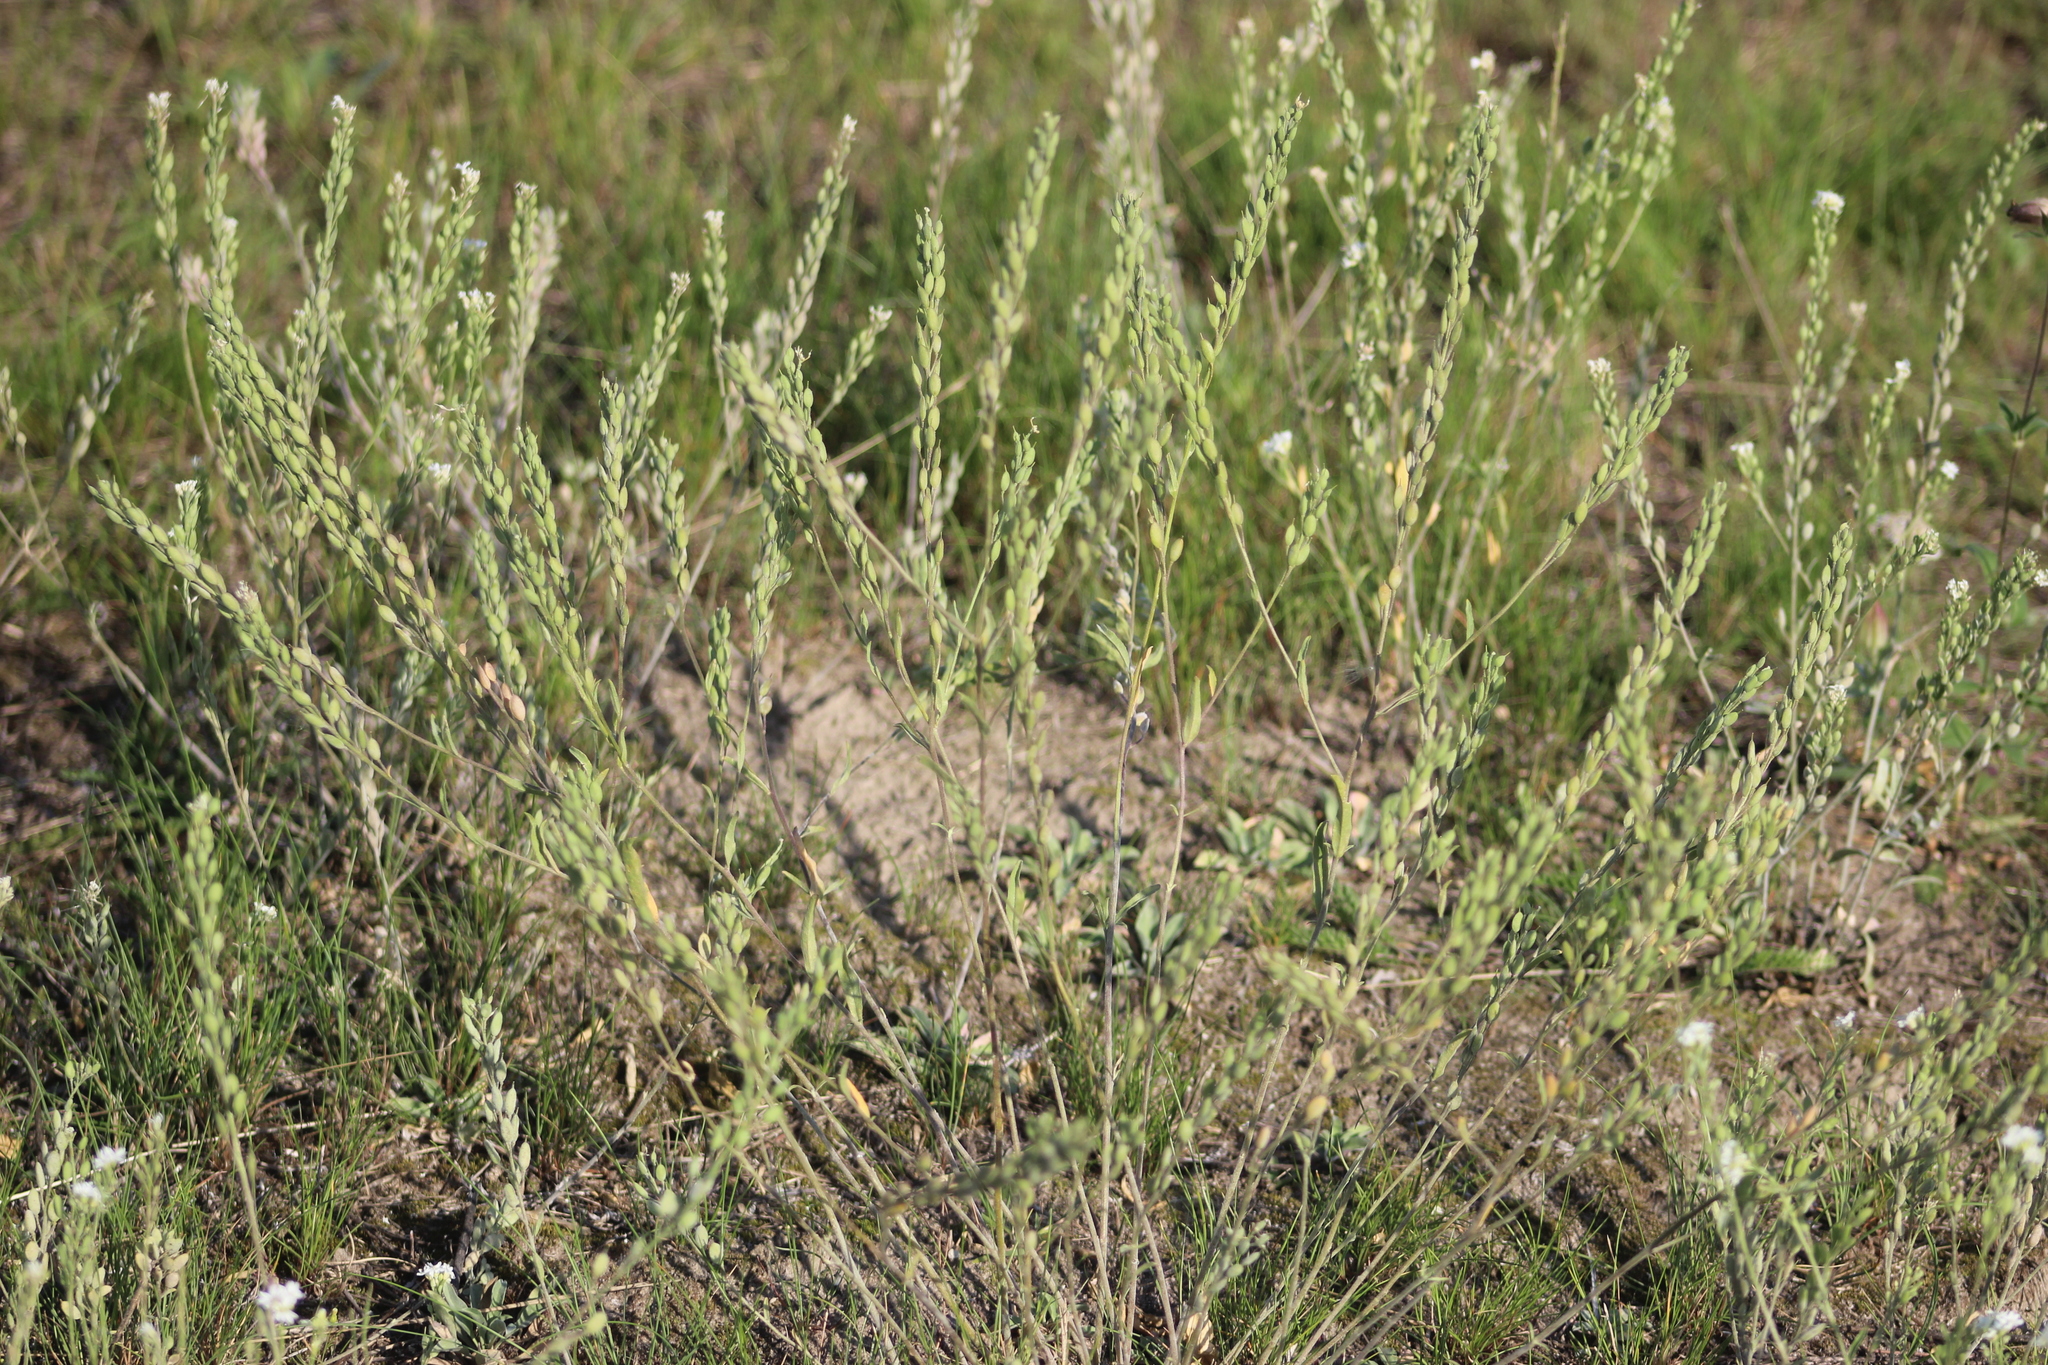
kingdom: Plantae
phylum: Tracheophyta
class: Magnoliopsida
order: Brassicales
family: Brassicaceae
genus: Berteroa
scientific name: Berteroa incana
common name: Hoary alison
